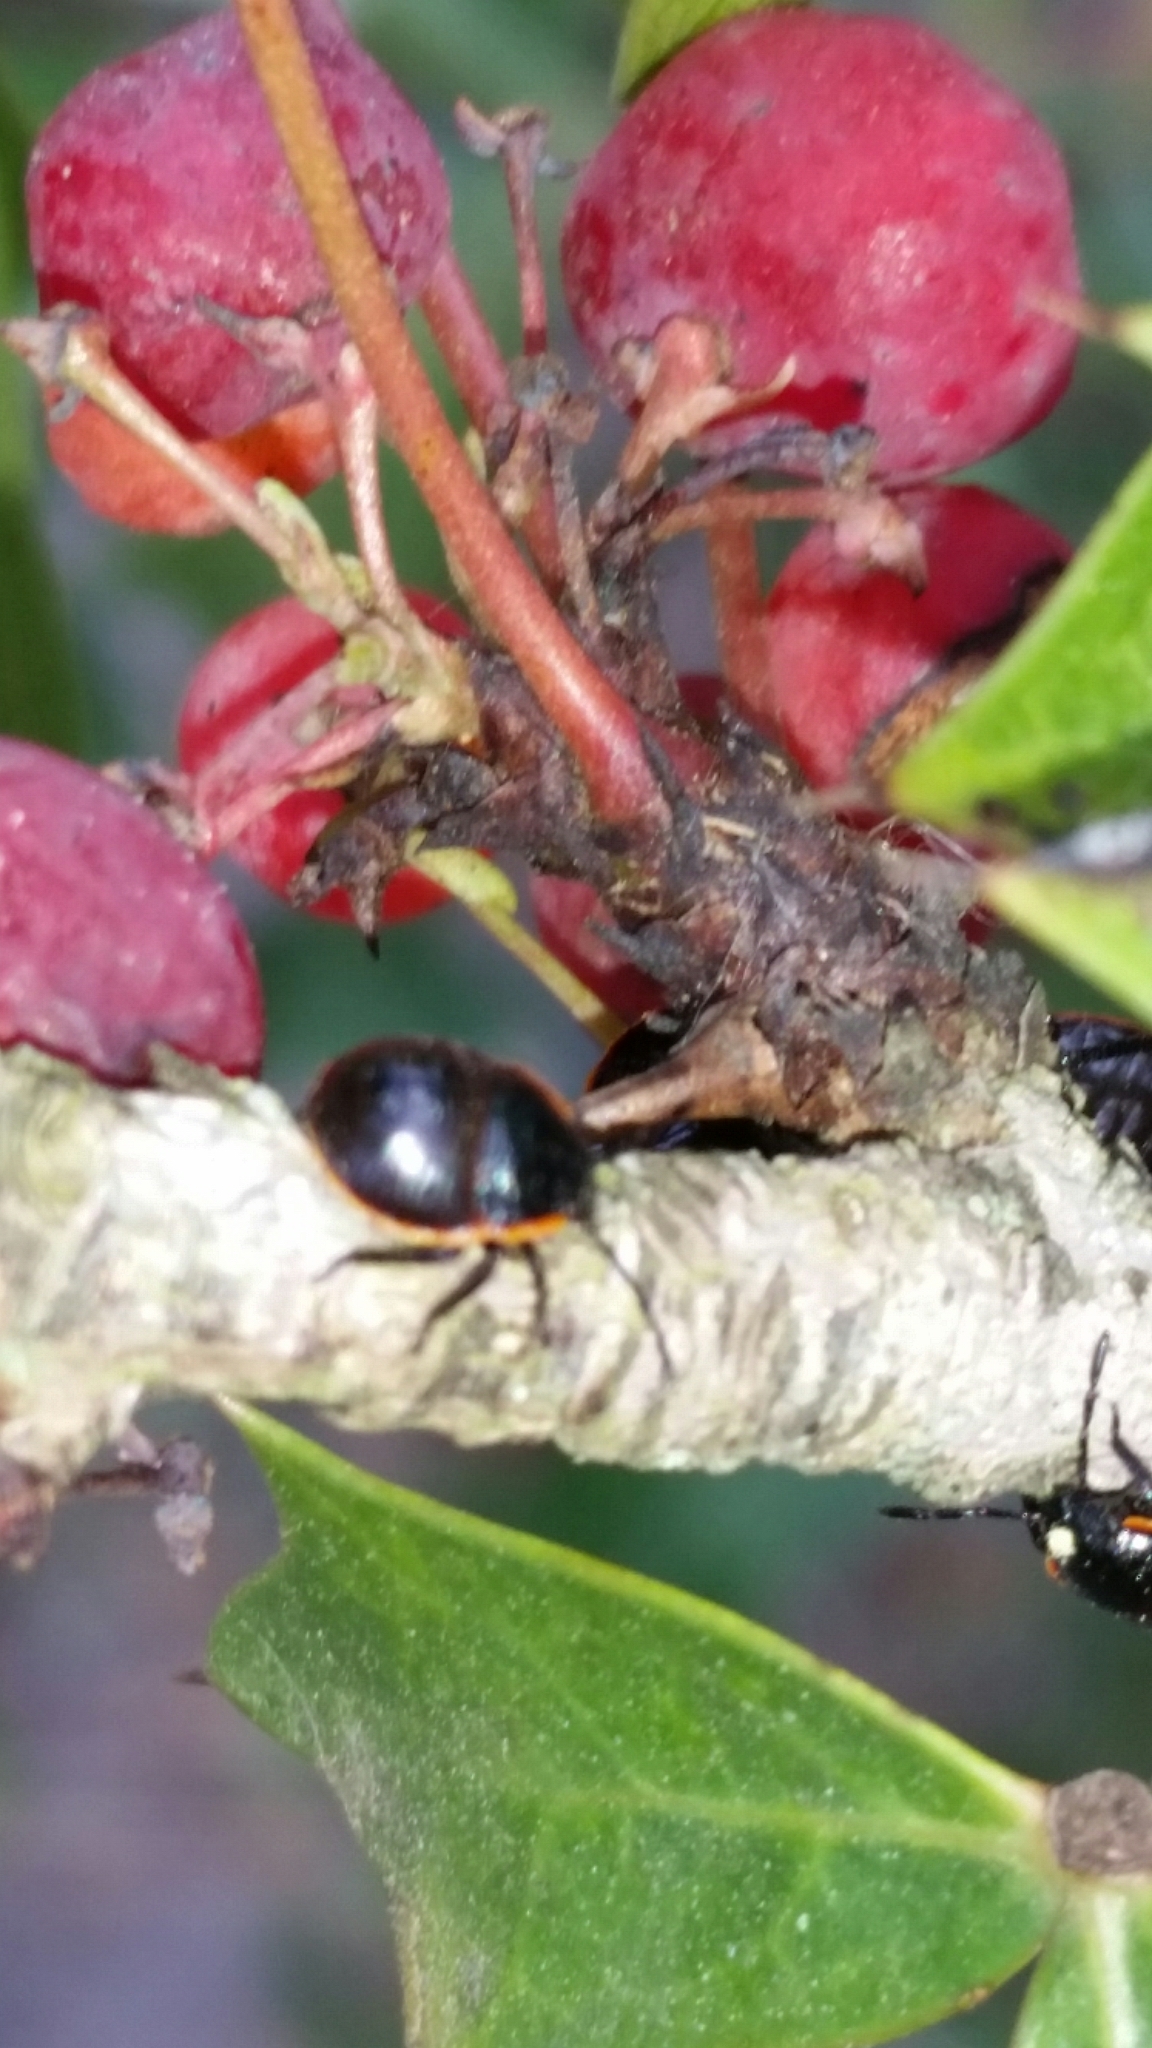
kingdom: Animalia
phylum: Arthropoda
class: Insecta
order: Hemiptera
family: Pentatomidae
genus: Chlorochroa
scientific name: Chlorochroa ligata
